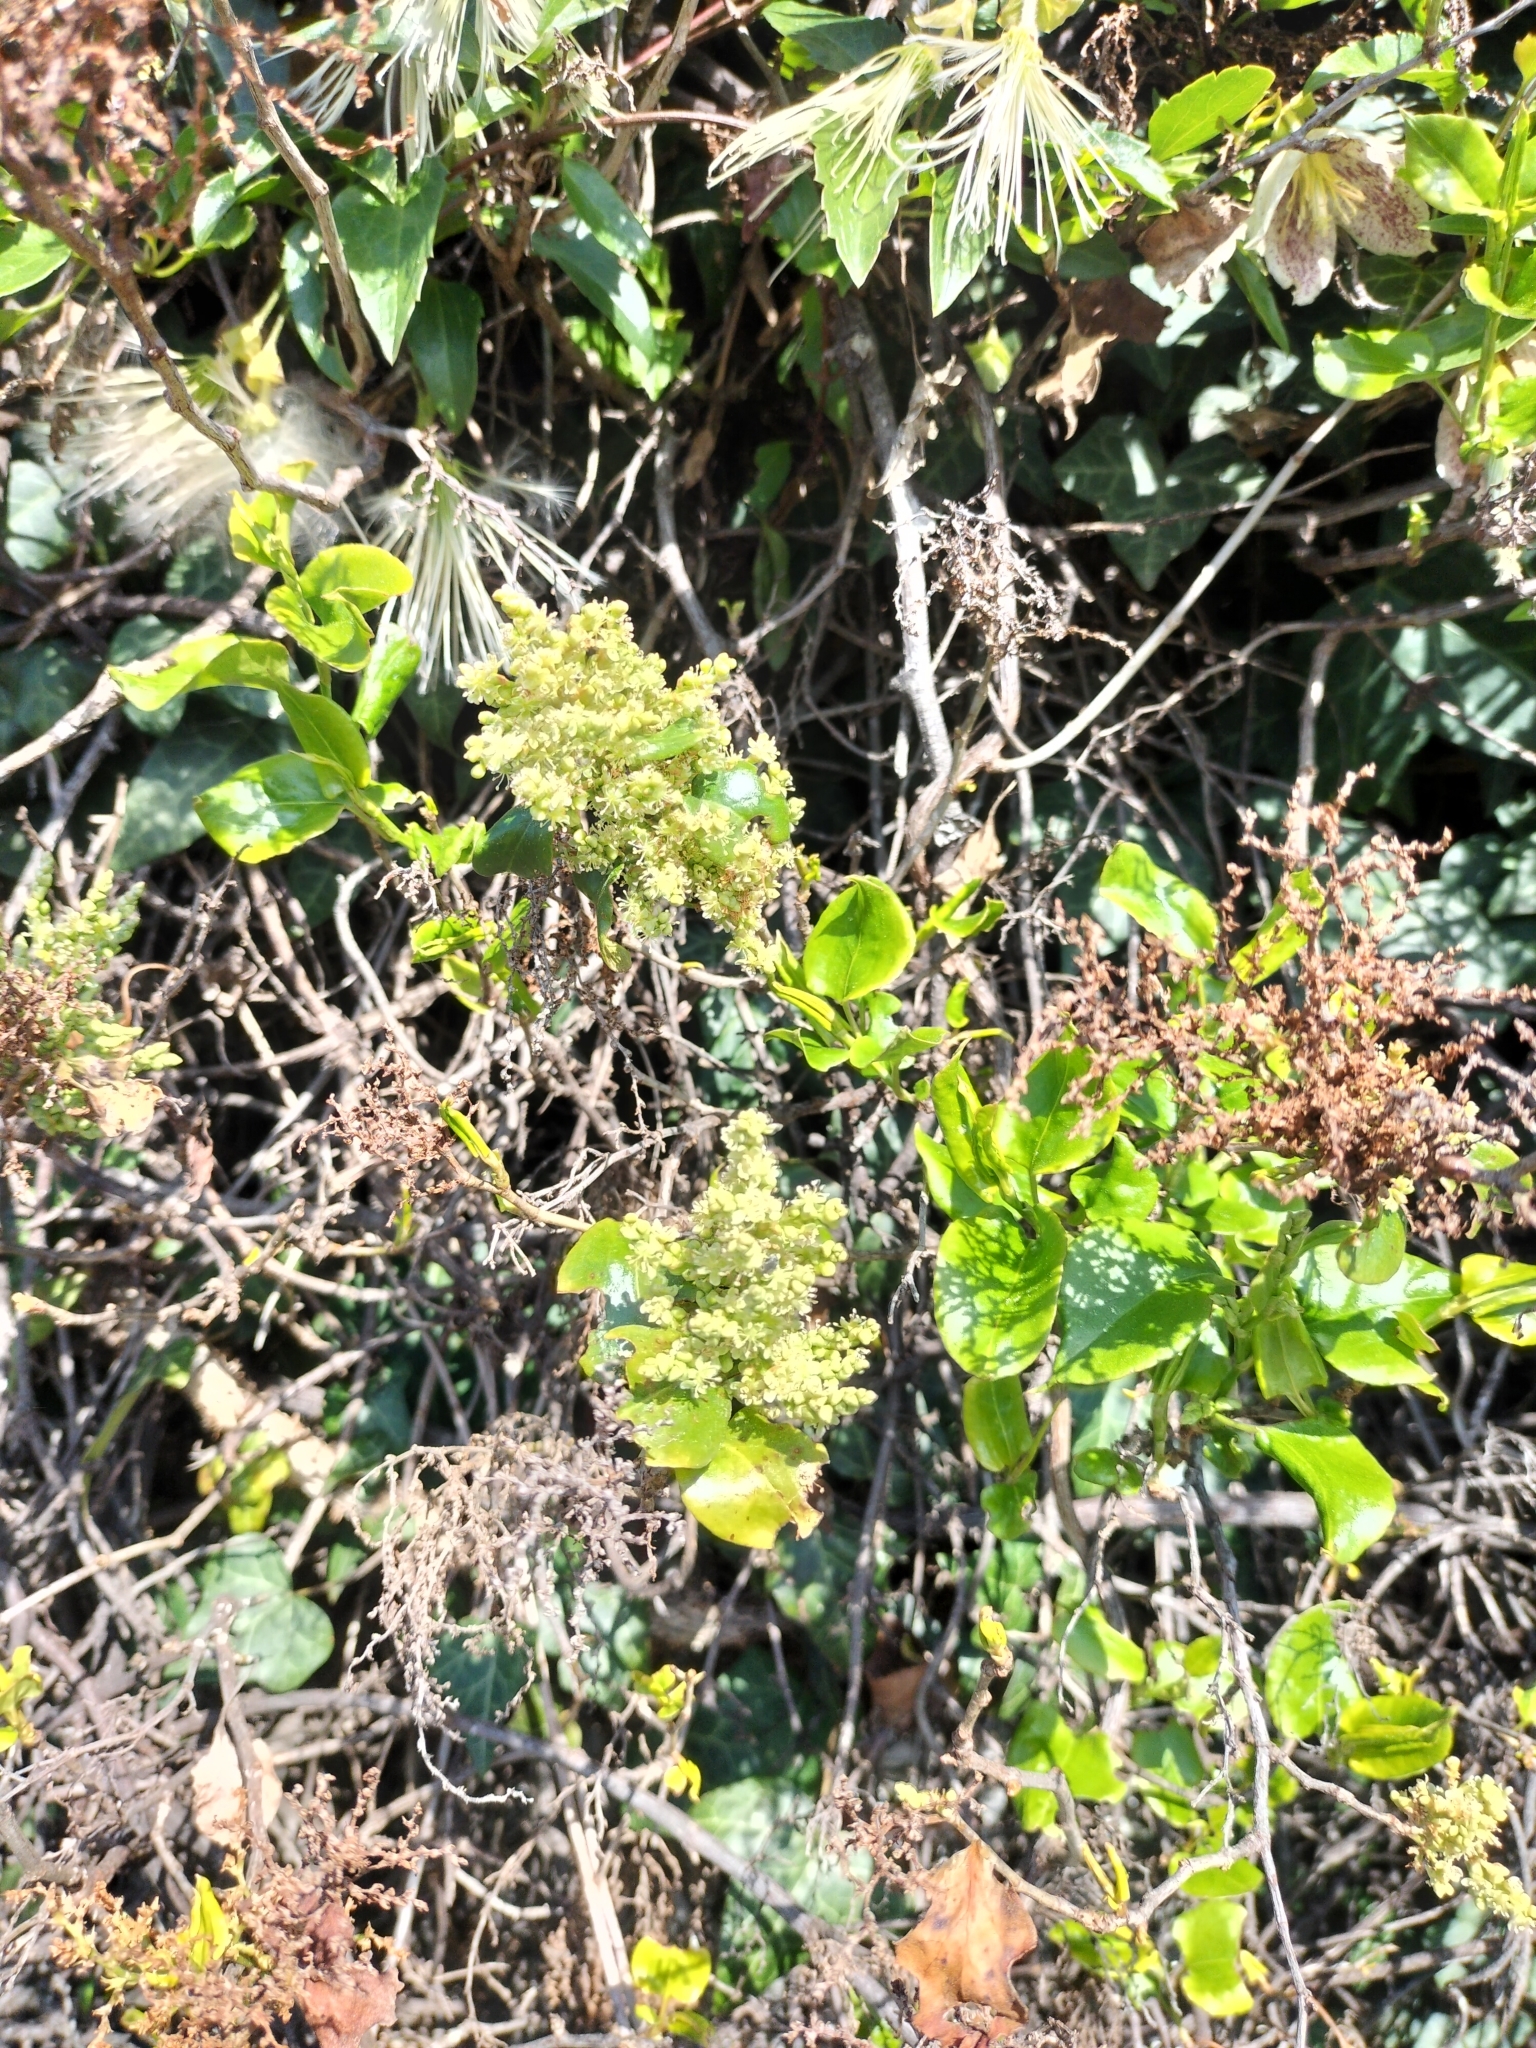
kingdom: Plantae
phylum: Tracheophyta
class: Magnoliopsida
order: Caryophyllales
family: Polygonaceae
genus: Muehlenbeckia
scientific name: Muehlenbeckia australis
